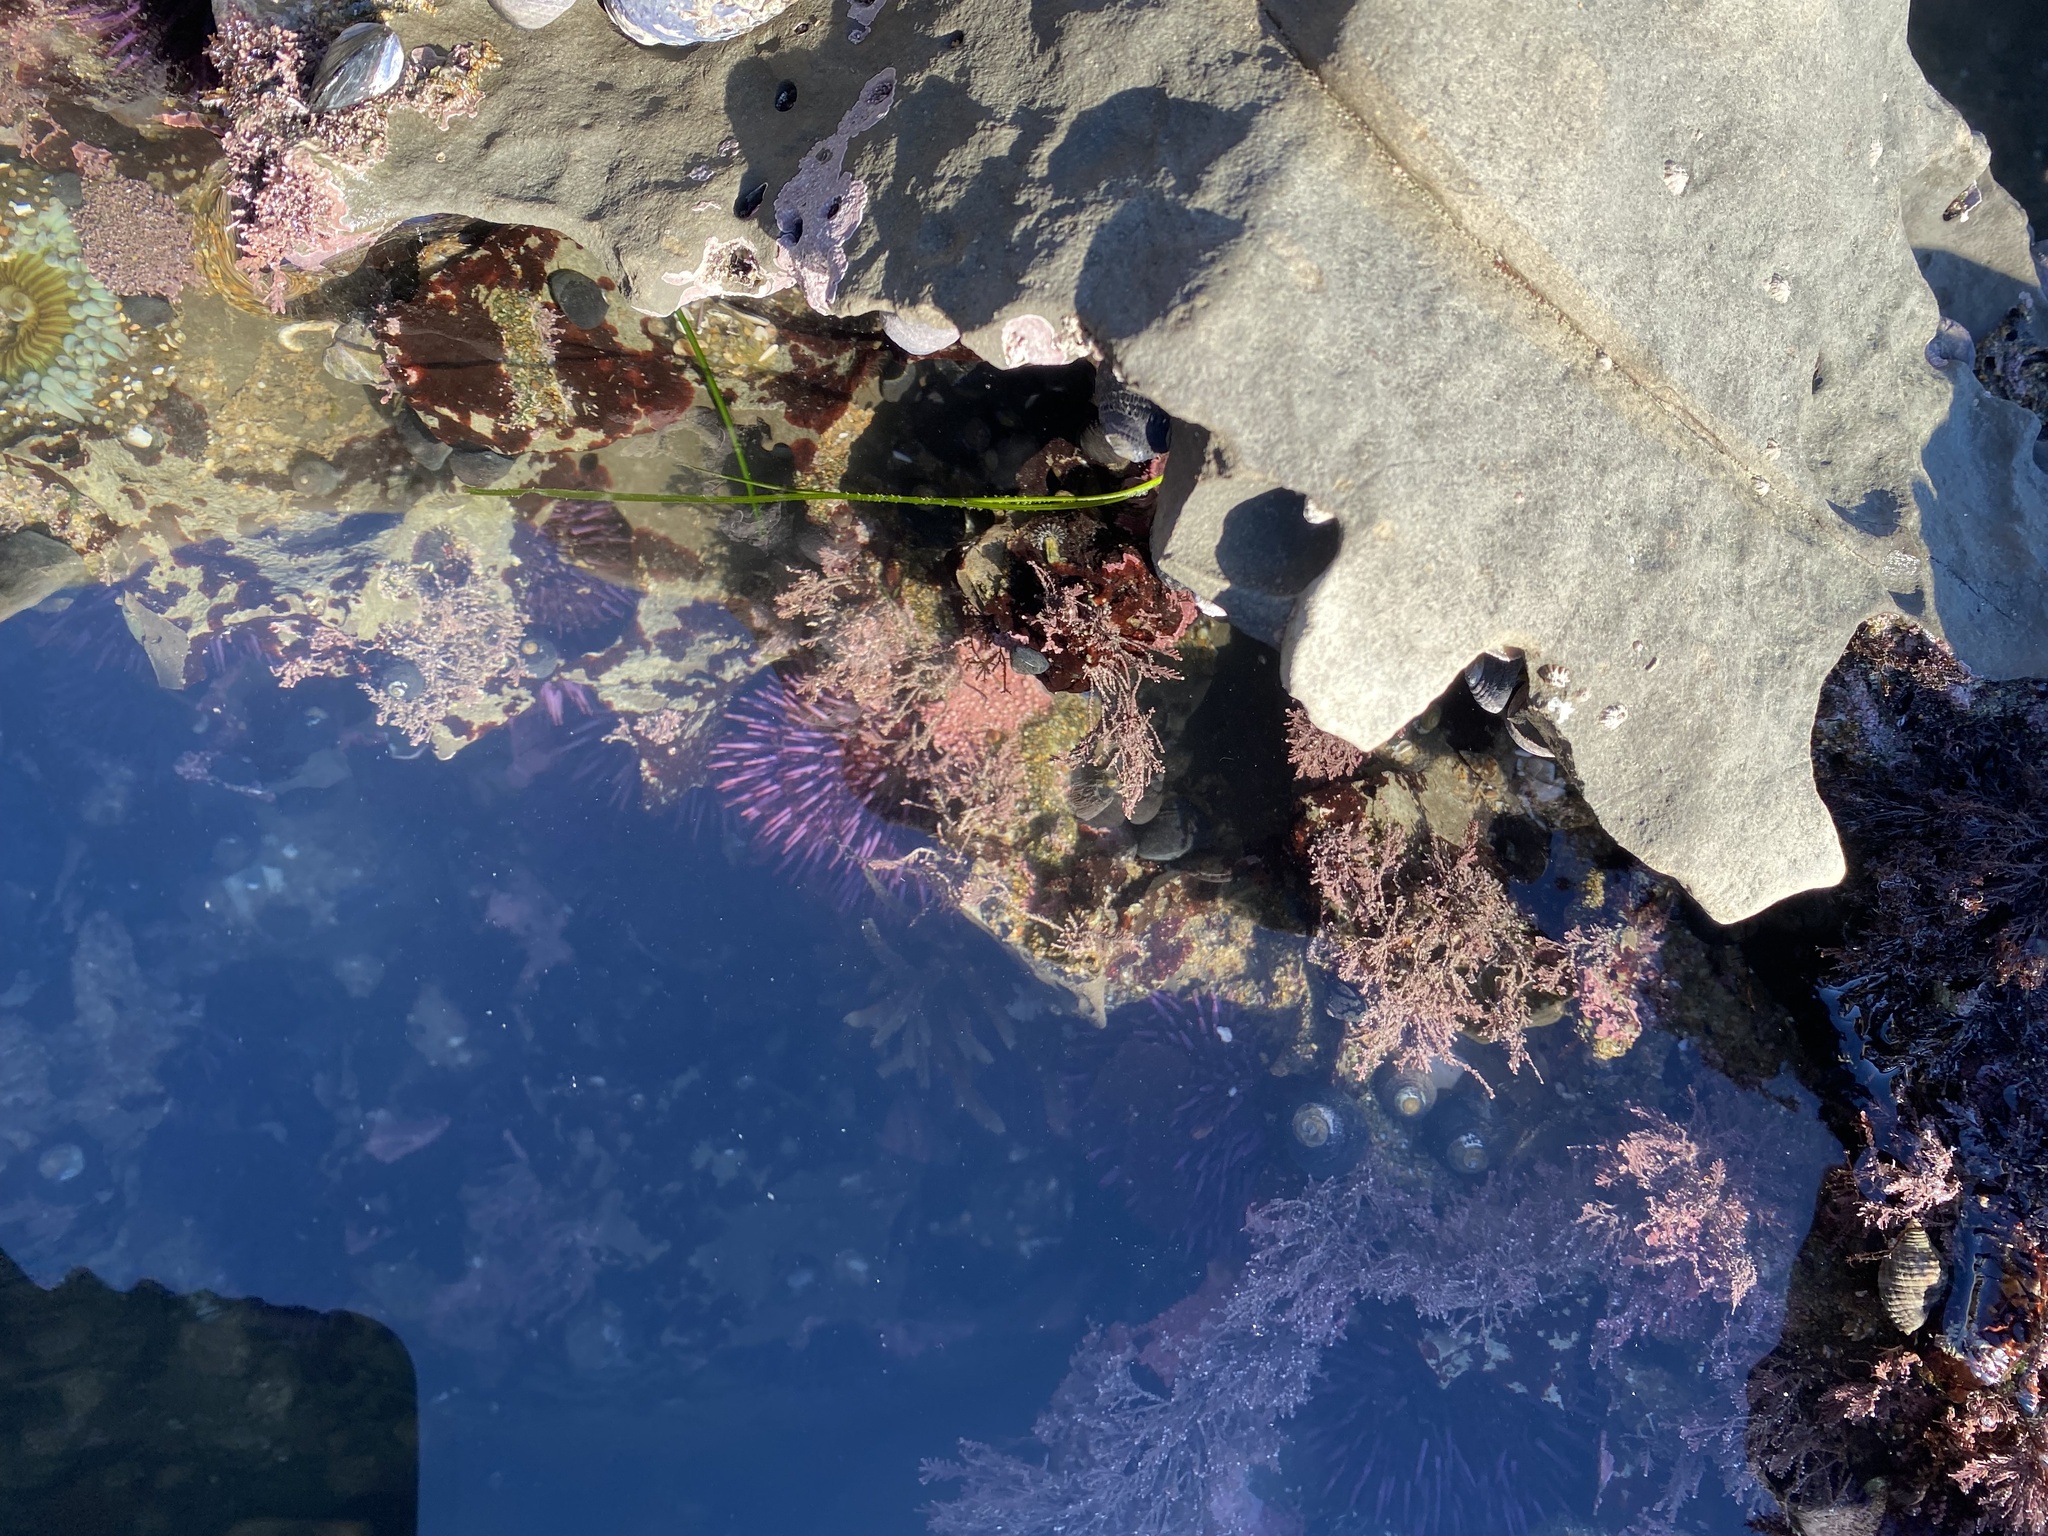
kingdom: Animalia
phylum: Echinodermata
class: Echinoidea
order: Camarodonta
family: Strongylocentrotidae
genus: Strongylocentrotus
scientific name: Strongylocentrotus purpuratus
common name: Purple sea urchin
